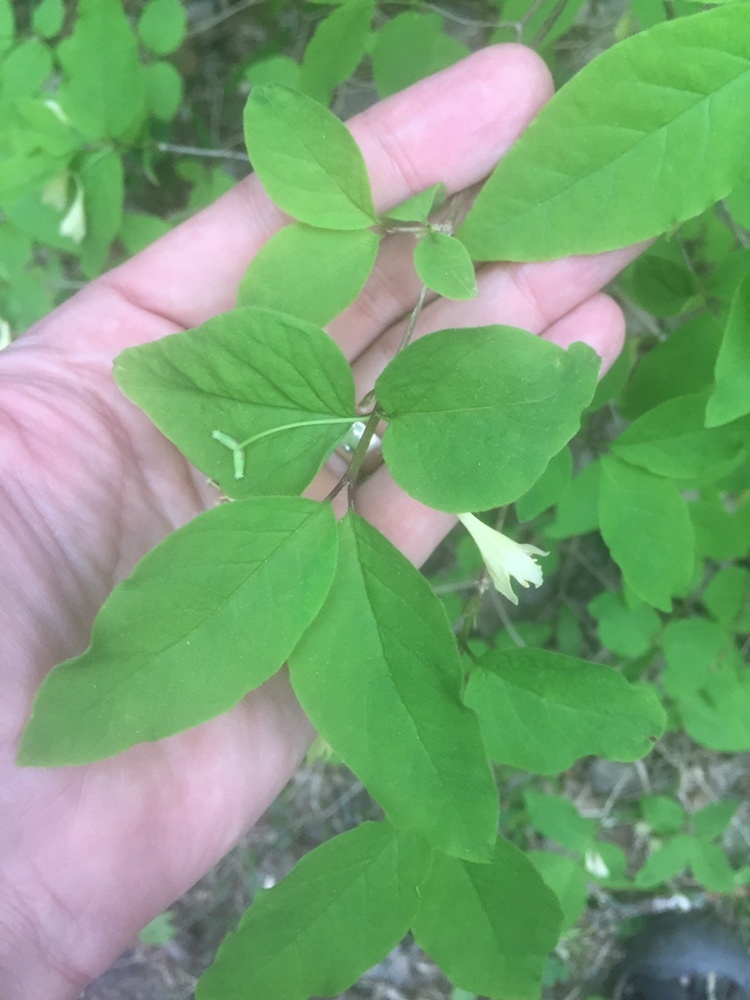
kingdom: Plantae
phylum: Tracheophyta
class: Magnoliopsida
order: Dipsacales
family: Caprifoliaceae
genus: Lonicera
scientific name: Lonicera canadensis
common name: American fly-honeysuckle
